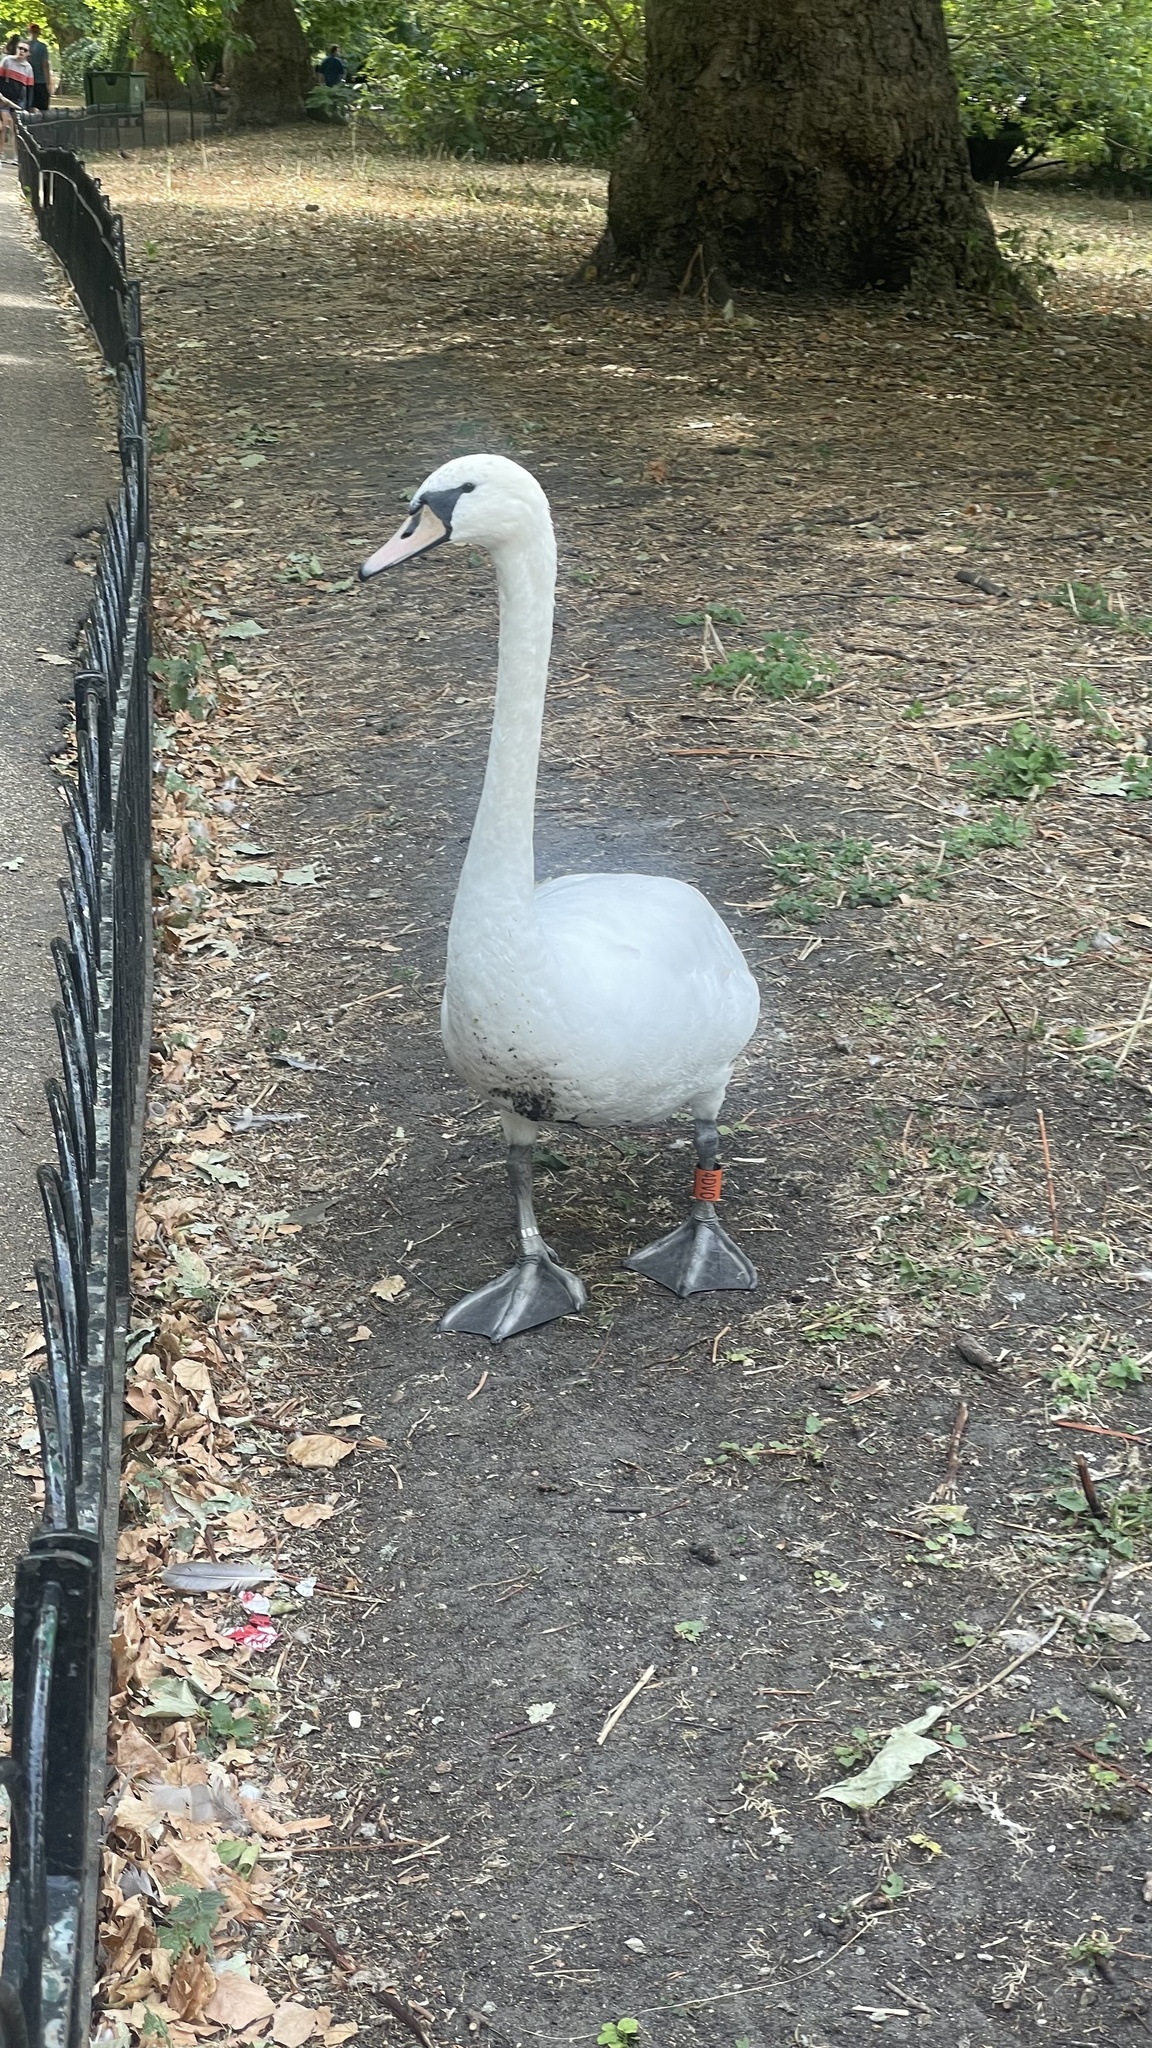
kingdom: Animalia
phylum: Chordata
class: Aves
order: Anseriformes
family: Anatidae
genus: Cygnus
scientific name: Cygnus olor
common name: Mute swan
